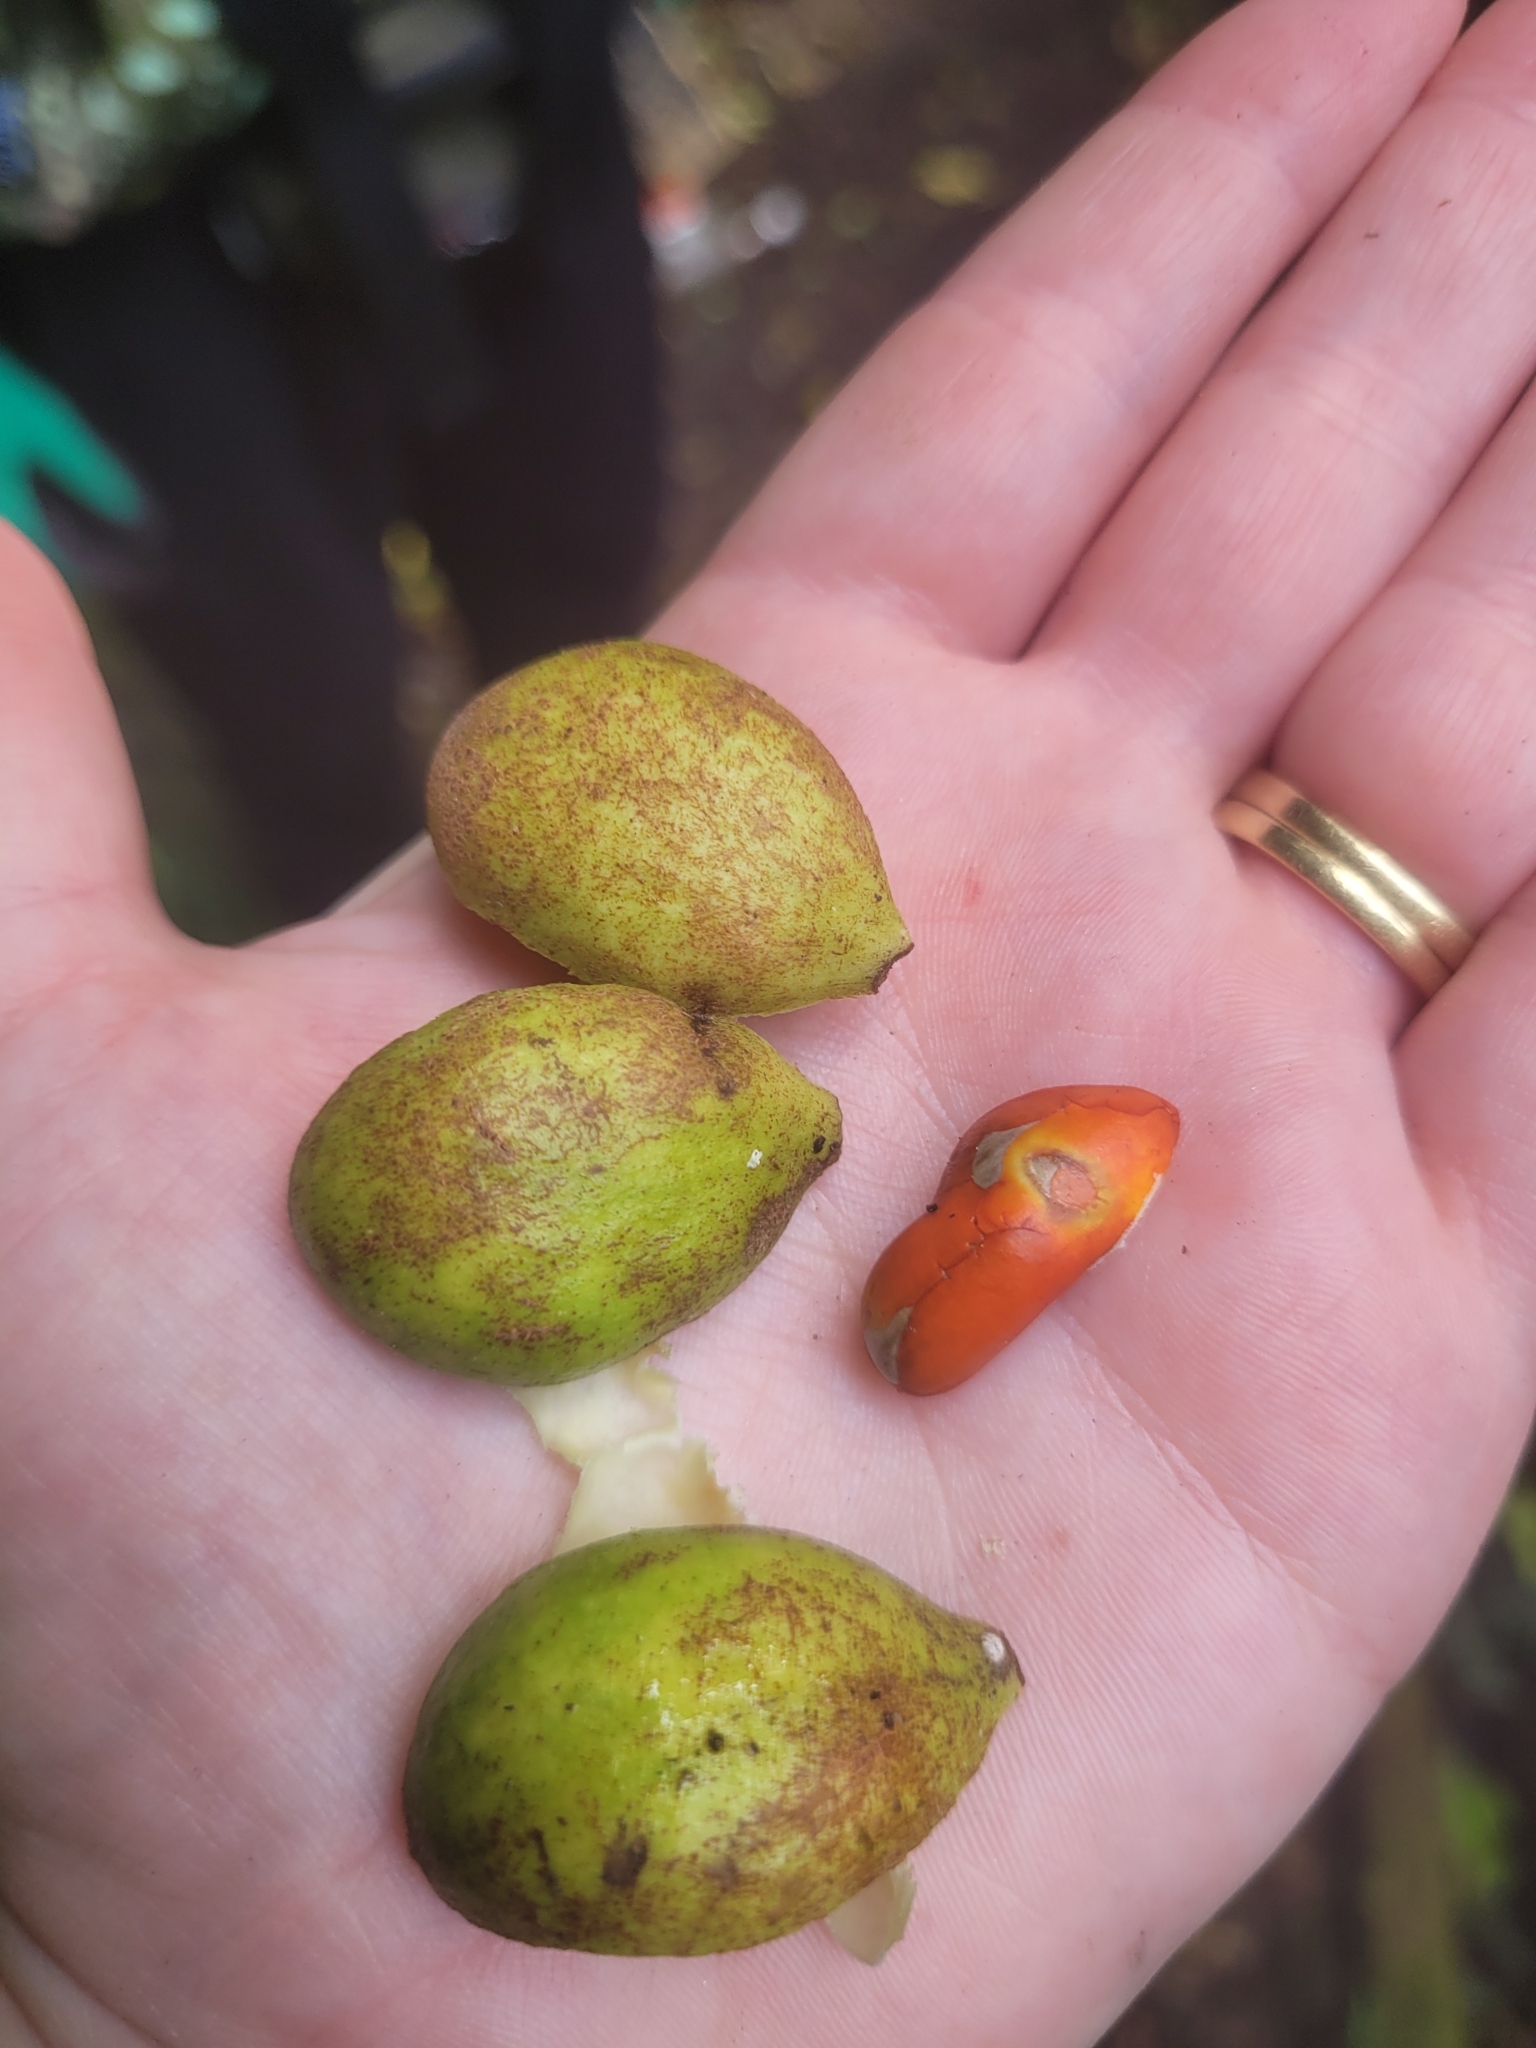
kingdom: Plantae
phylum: Tracheophyta
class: Magnoliopsida
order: Sapindales
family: Meliaceae
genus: Didymocheton
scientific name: Didymocheton spectabilis
